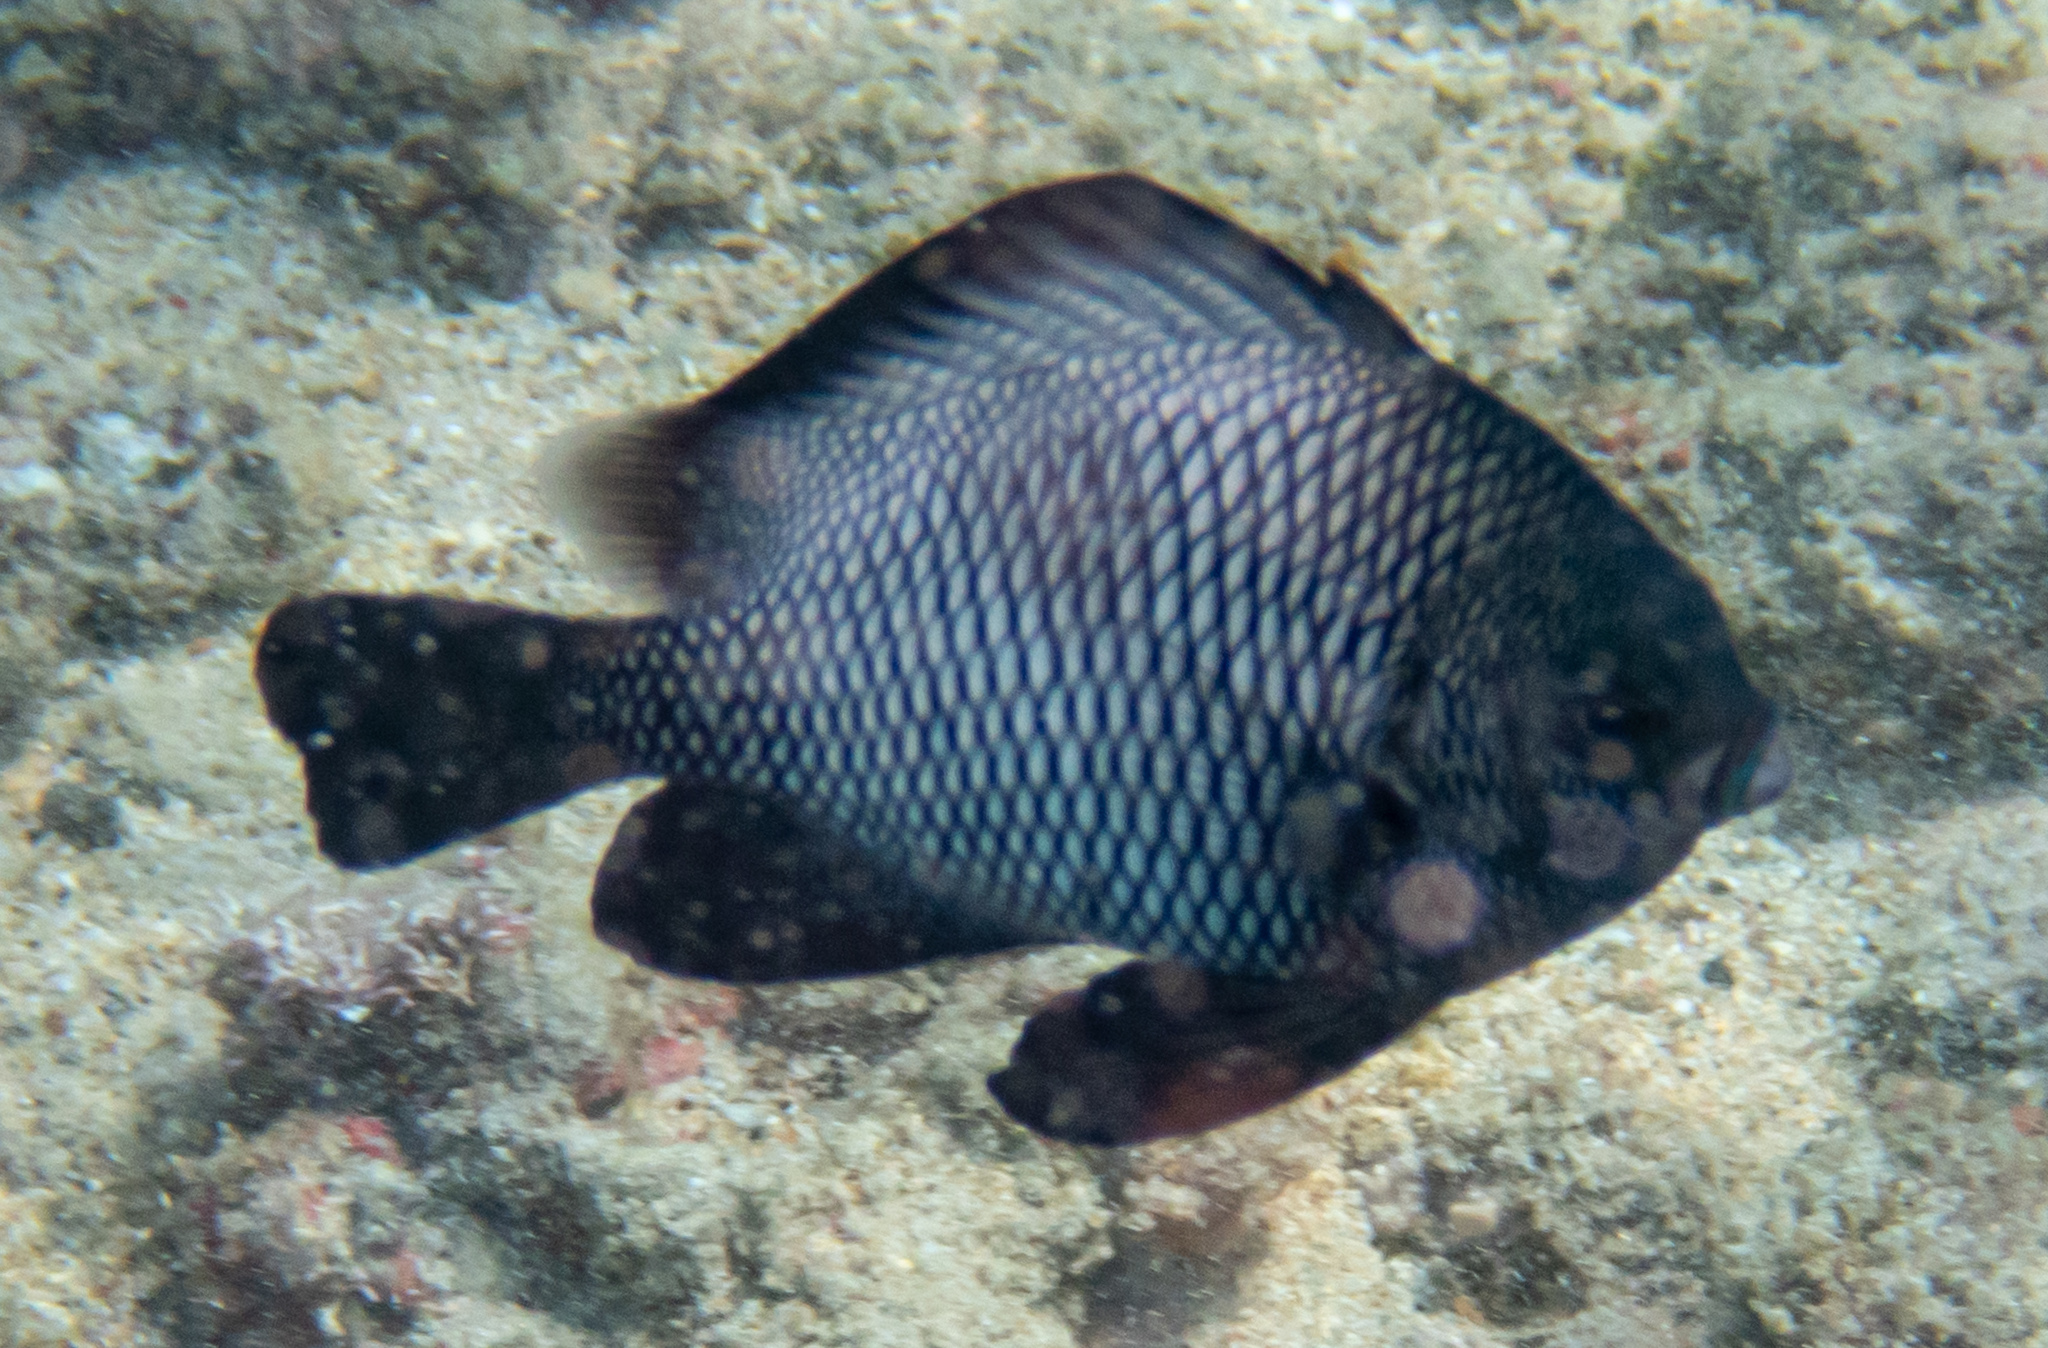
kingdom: Animalia
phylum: Chordata
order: Perciformes
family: Pomacentridae
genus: Dascyllus
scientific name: Dascyllus albisella
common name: Hawaiian dascyllus
